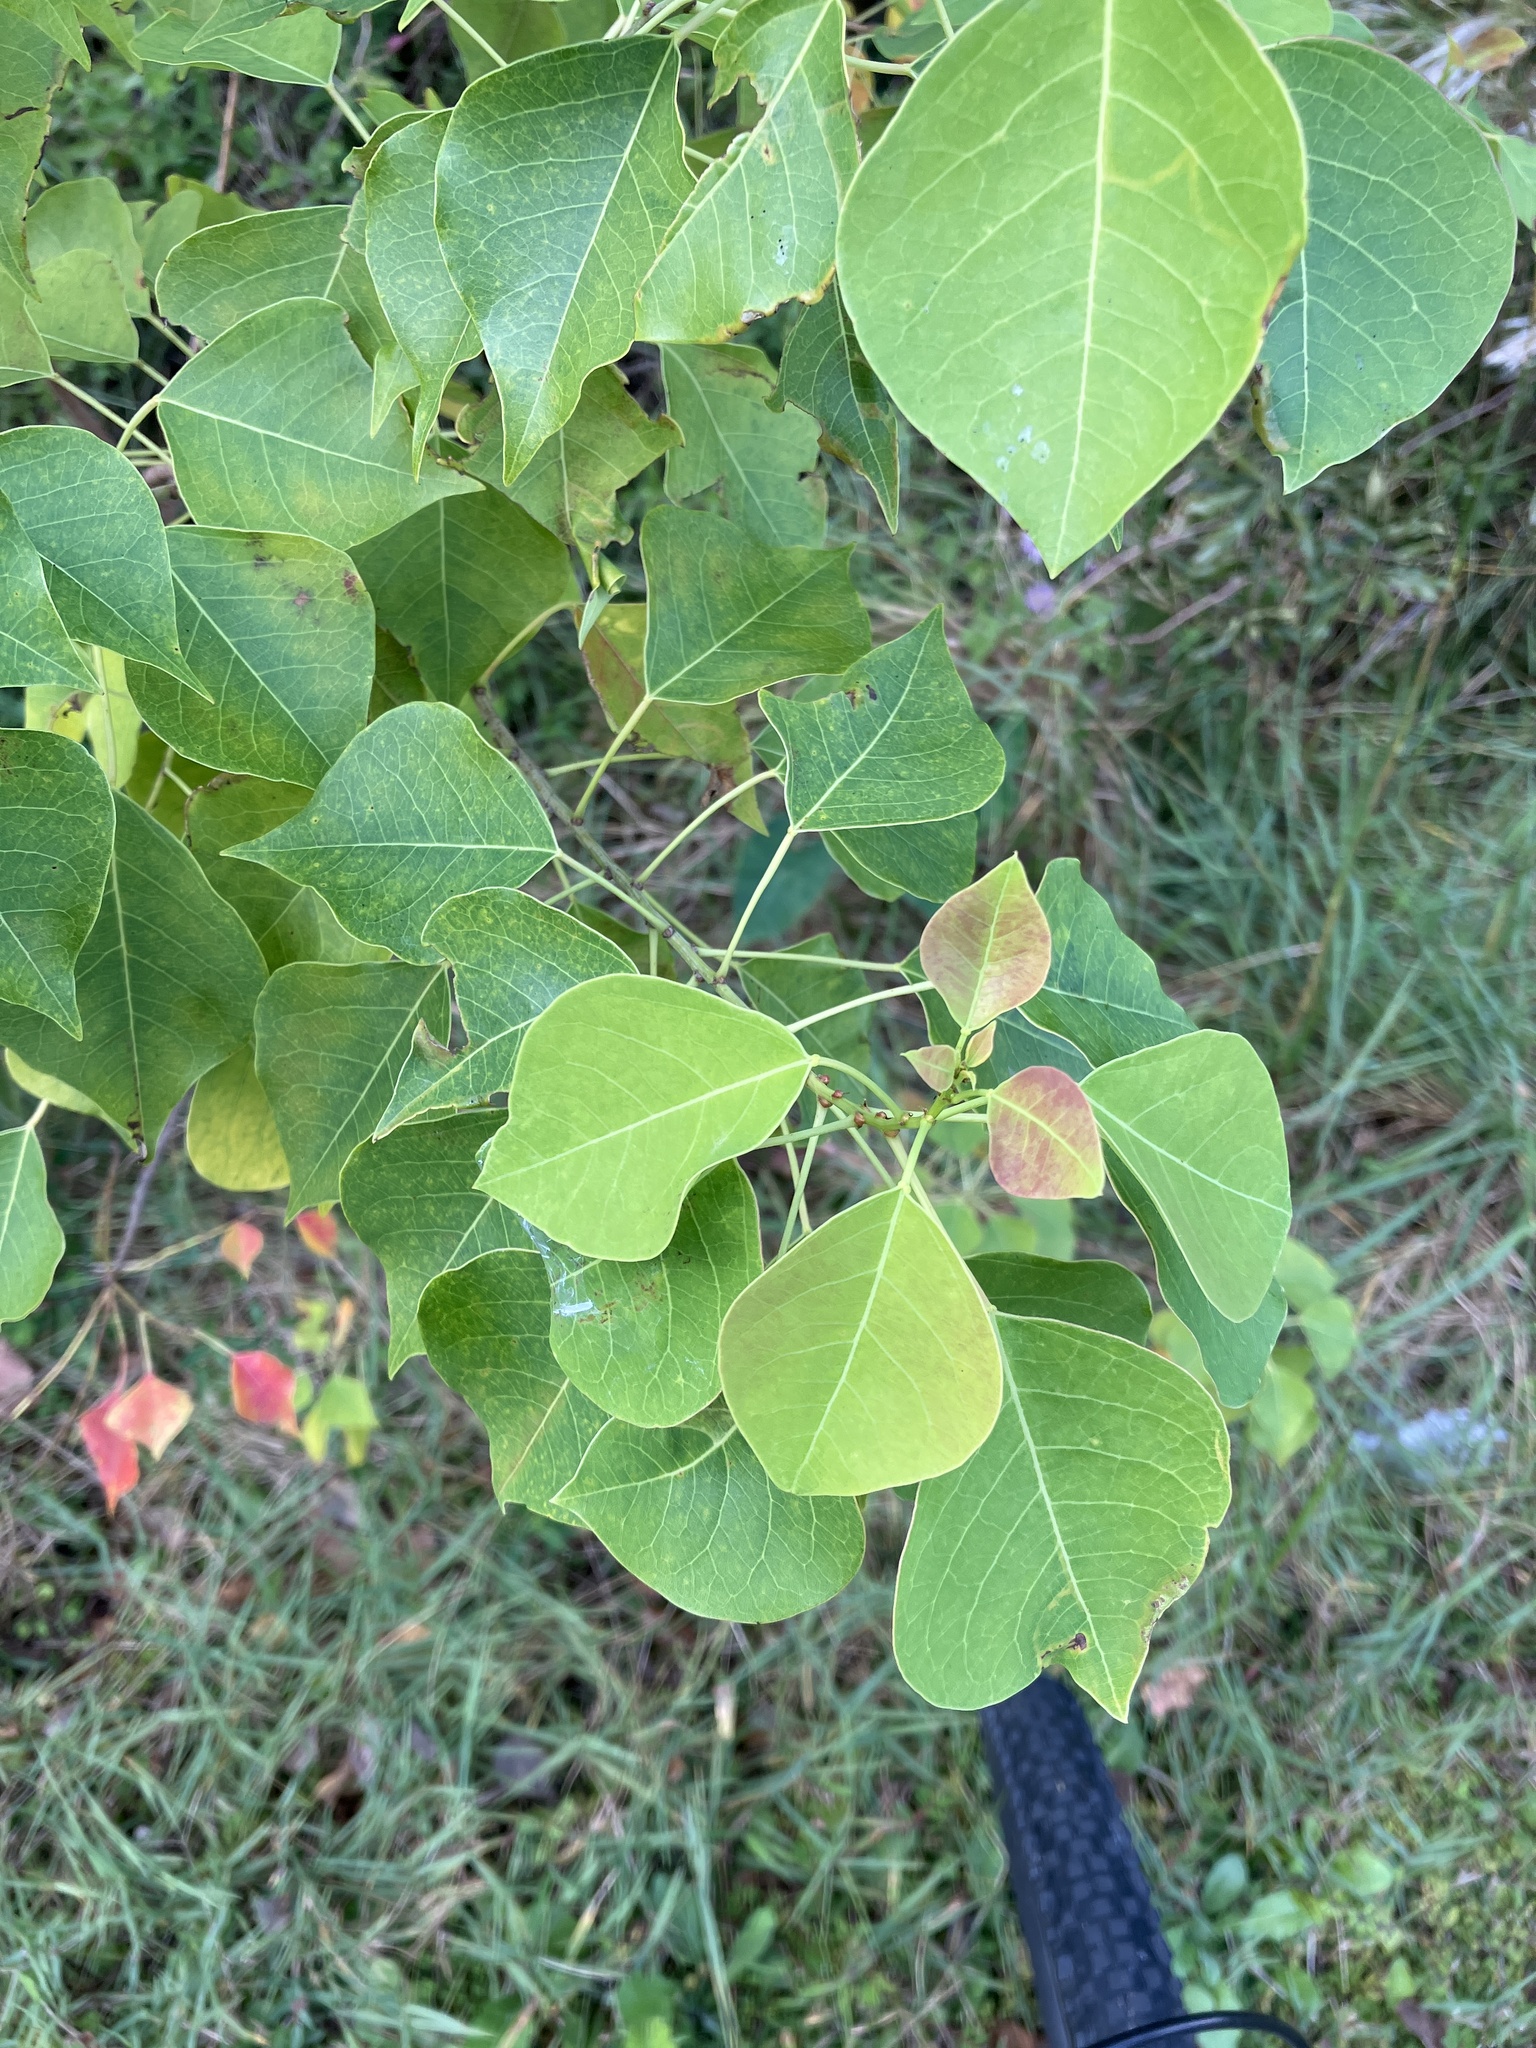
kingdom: Plantae
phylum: Tracheophyta
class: Magnoliopsida
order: Malpighiales
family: Euphorbiaceae
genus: Triadica
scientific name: Triadica sebifera
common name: Chinese tallow
